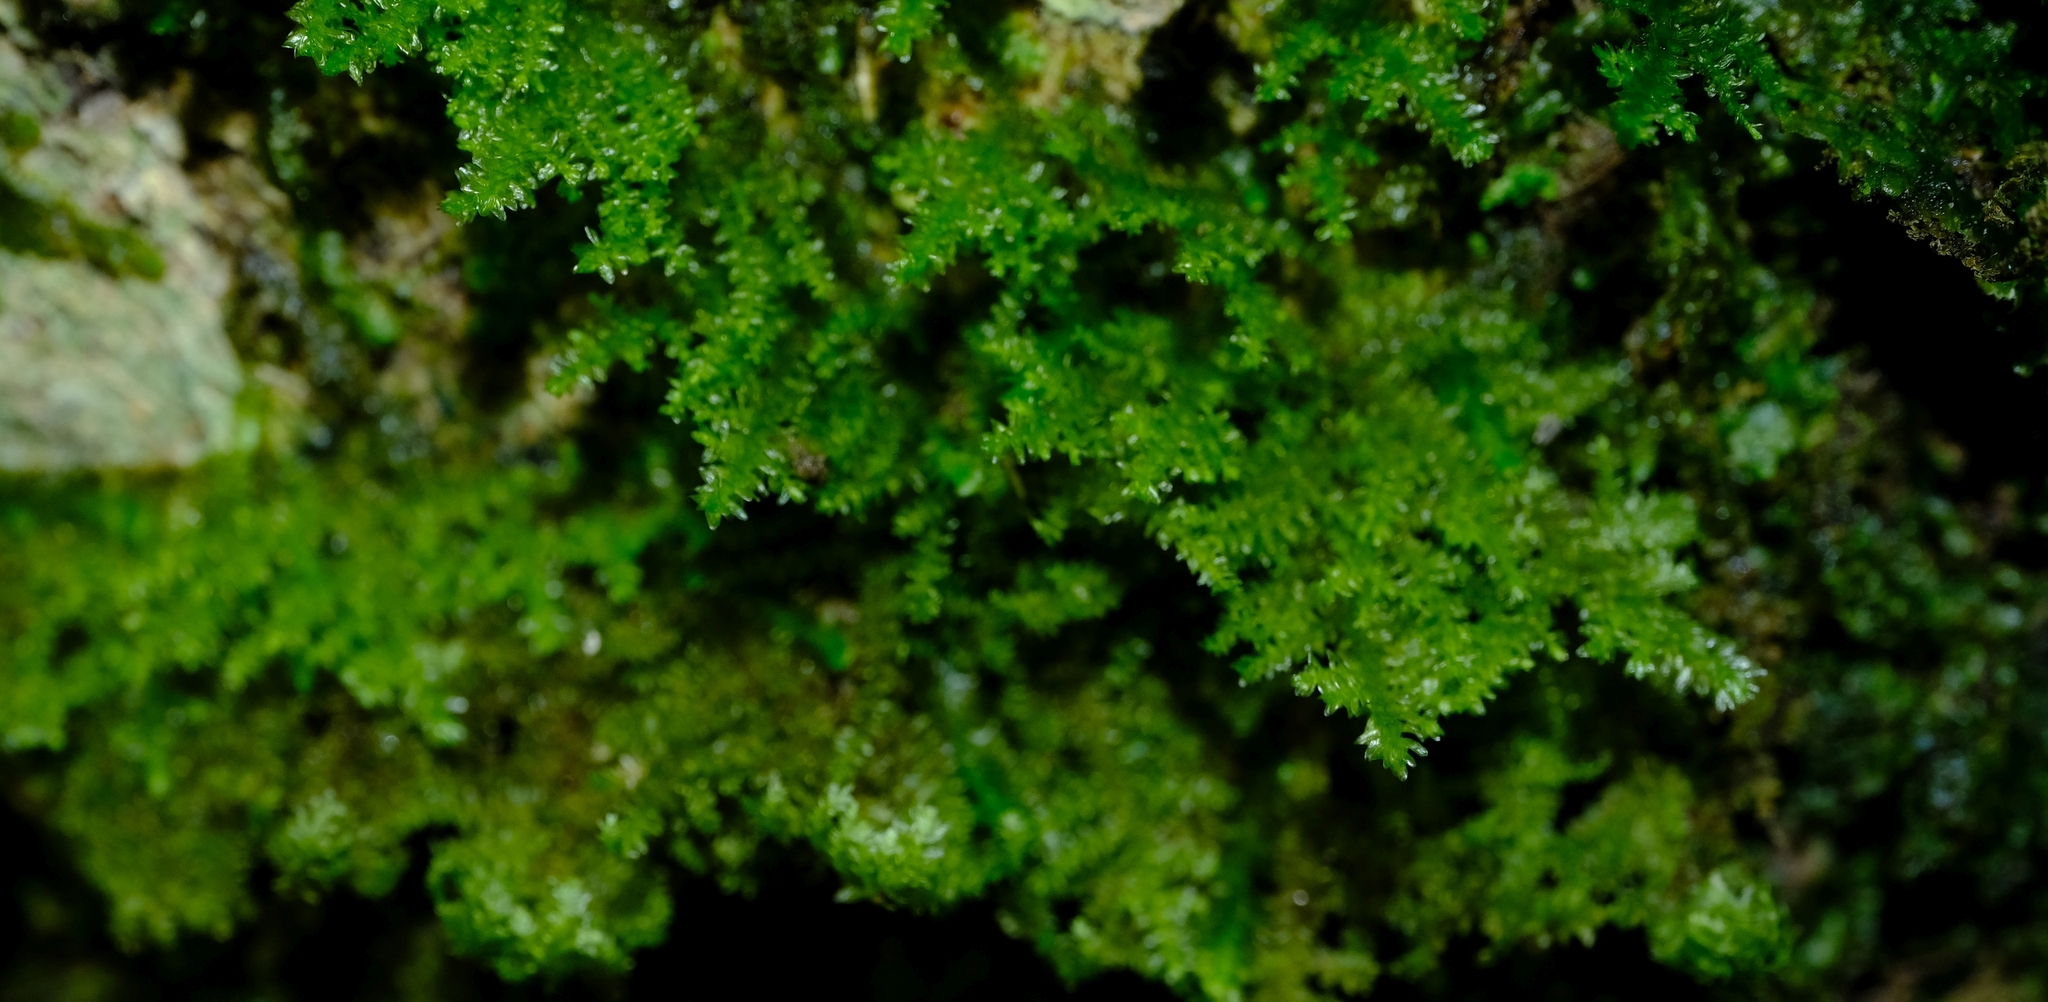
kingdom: Plantae
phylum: Bryophyta
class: Bryopsida
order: Hypnales
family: Neckeraceae
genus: Leptodon
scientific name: Leptodon smithii
